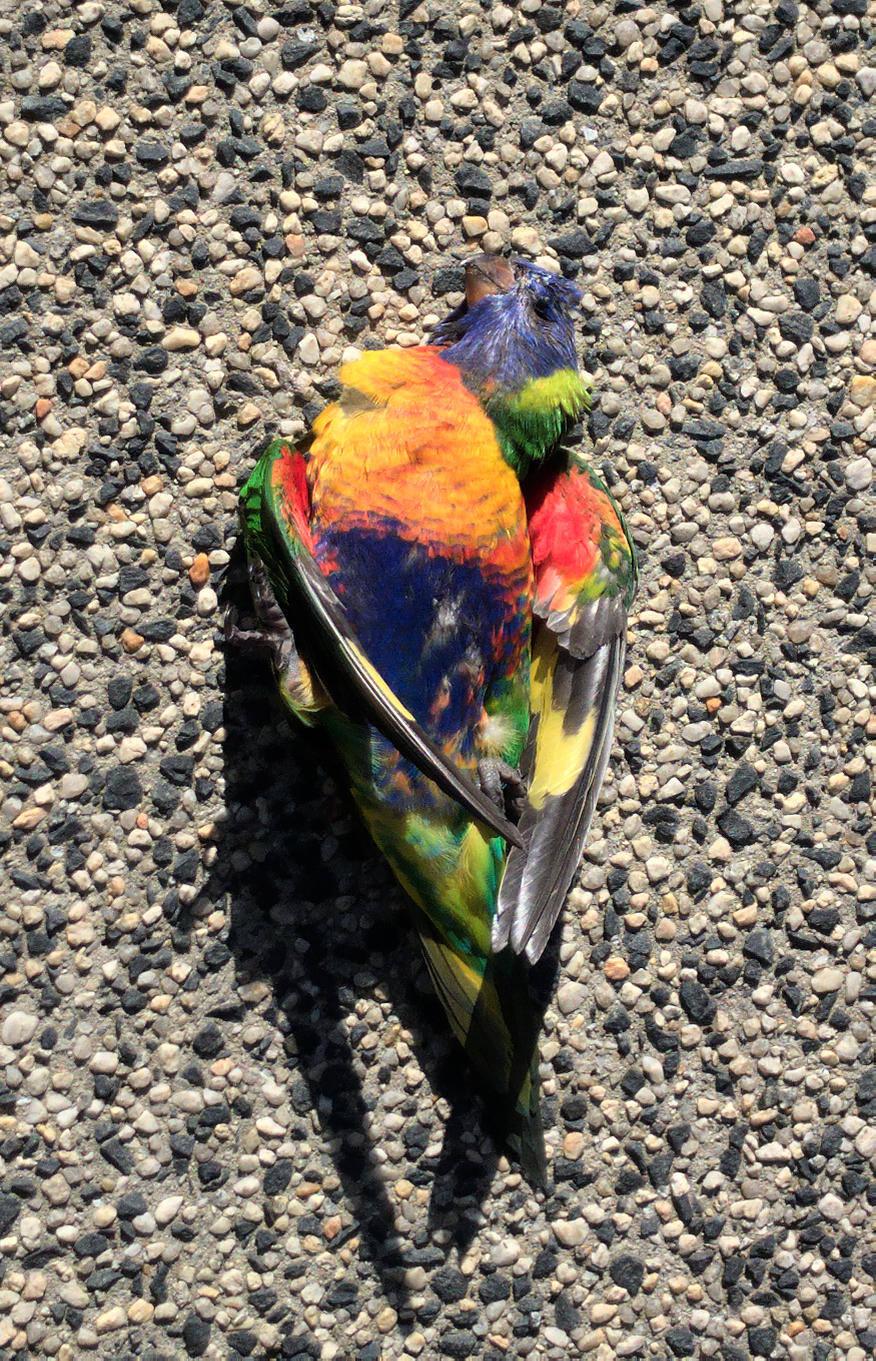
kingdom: Animalia
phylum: Chordata
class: Aves
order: Psittaciformes
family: Psittacidae
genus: Trichoglossus
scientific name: Trichoglossus haematodus
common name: Coconut lorikeet
